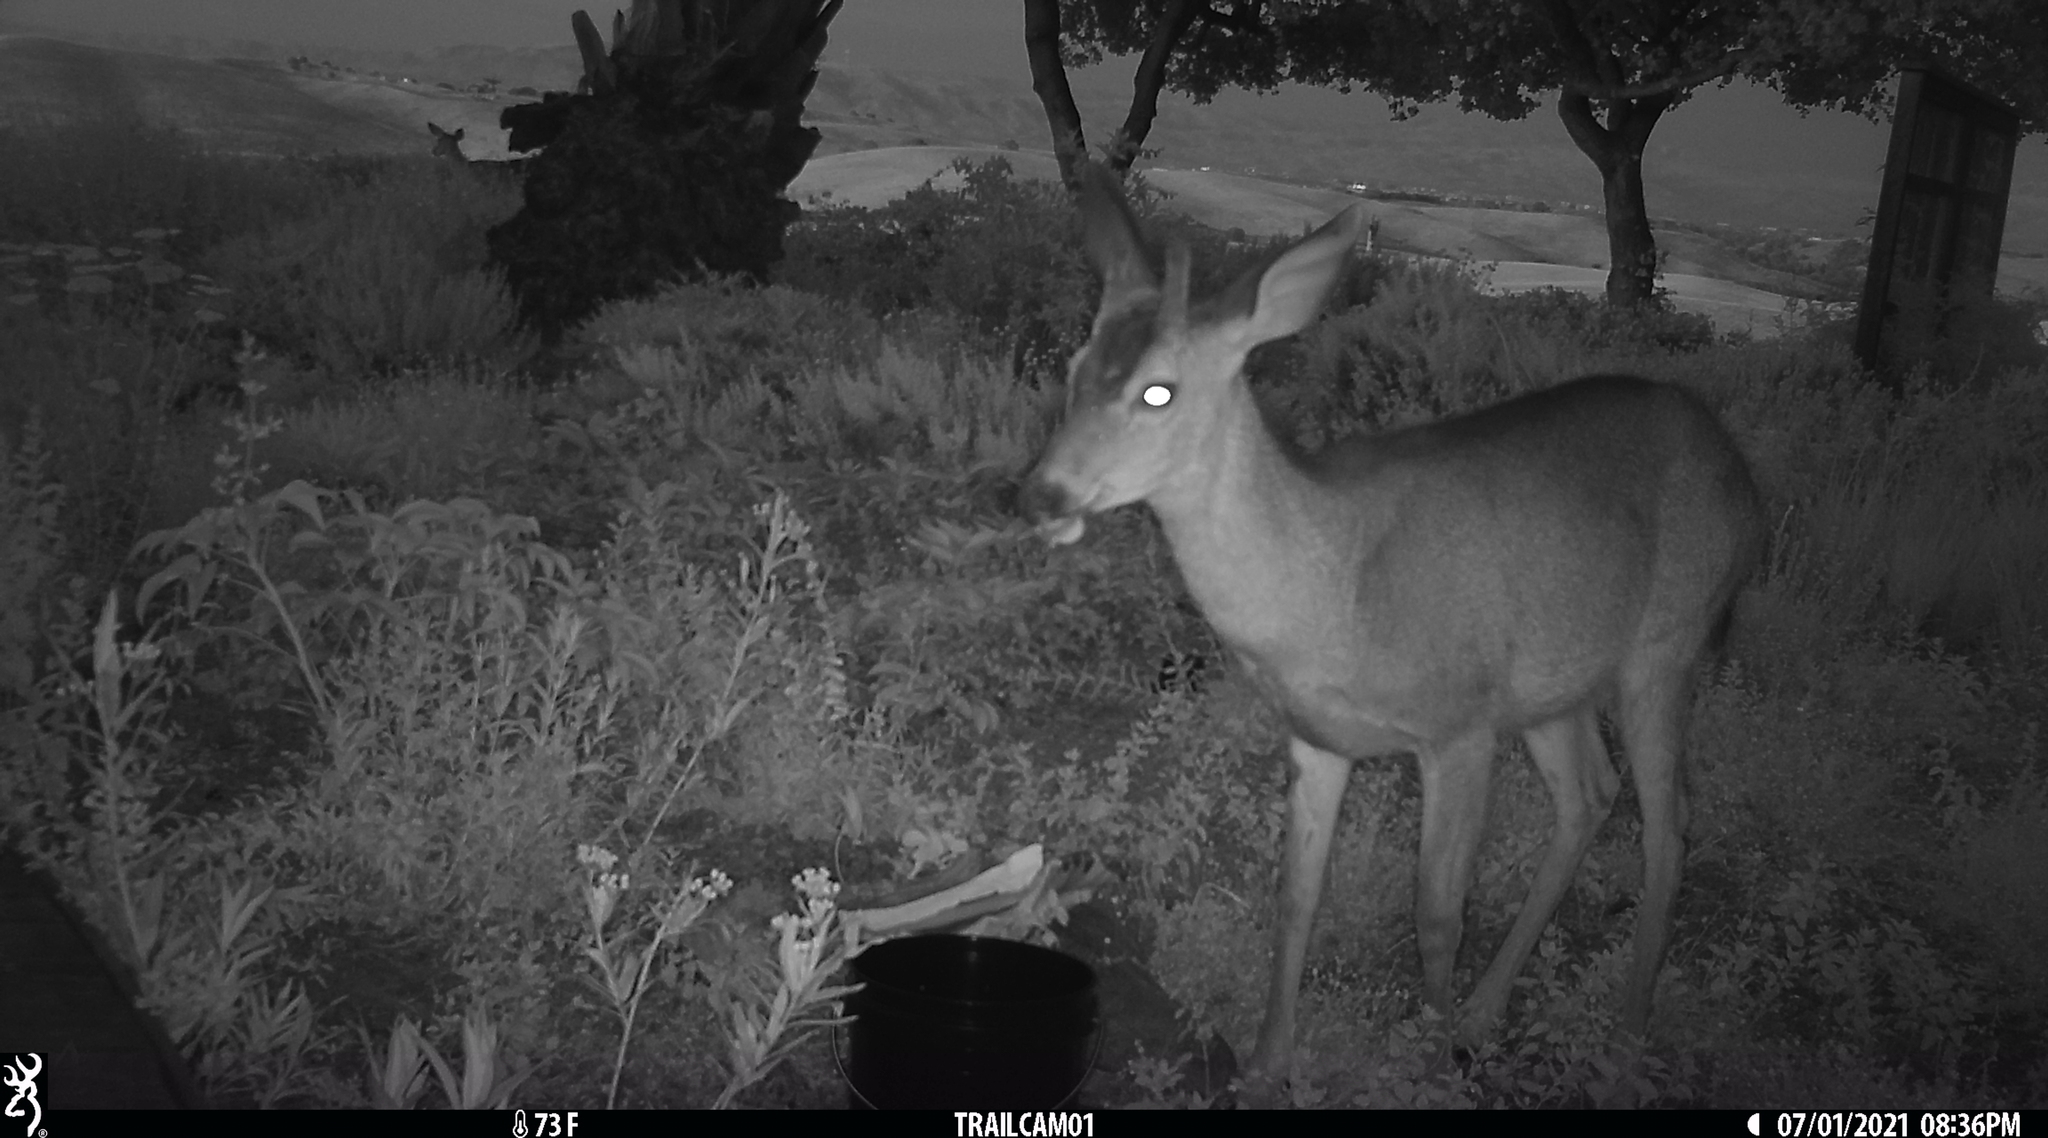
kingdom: Animalia
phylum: Chordata
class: Mammalia
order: Artiodactyla
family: Cervidae
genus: Odocoileus
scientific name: Odocoileus hemionus
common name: Mule deer
